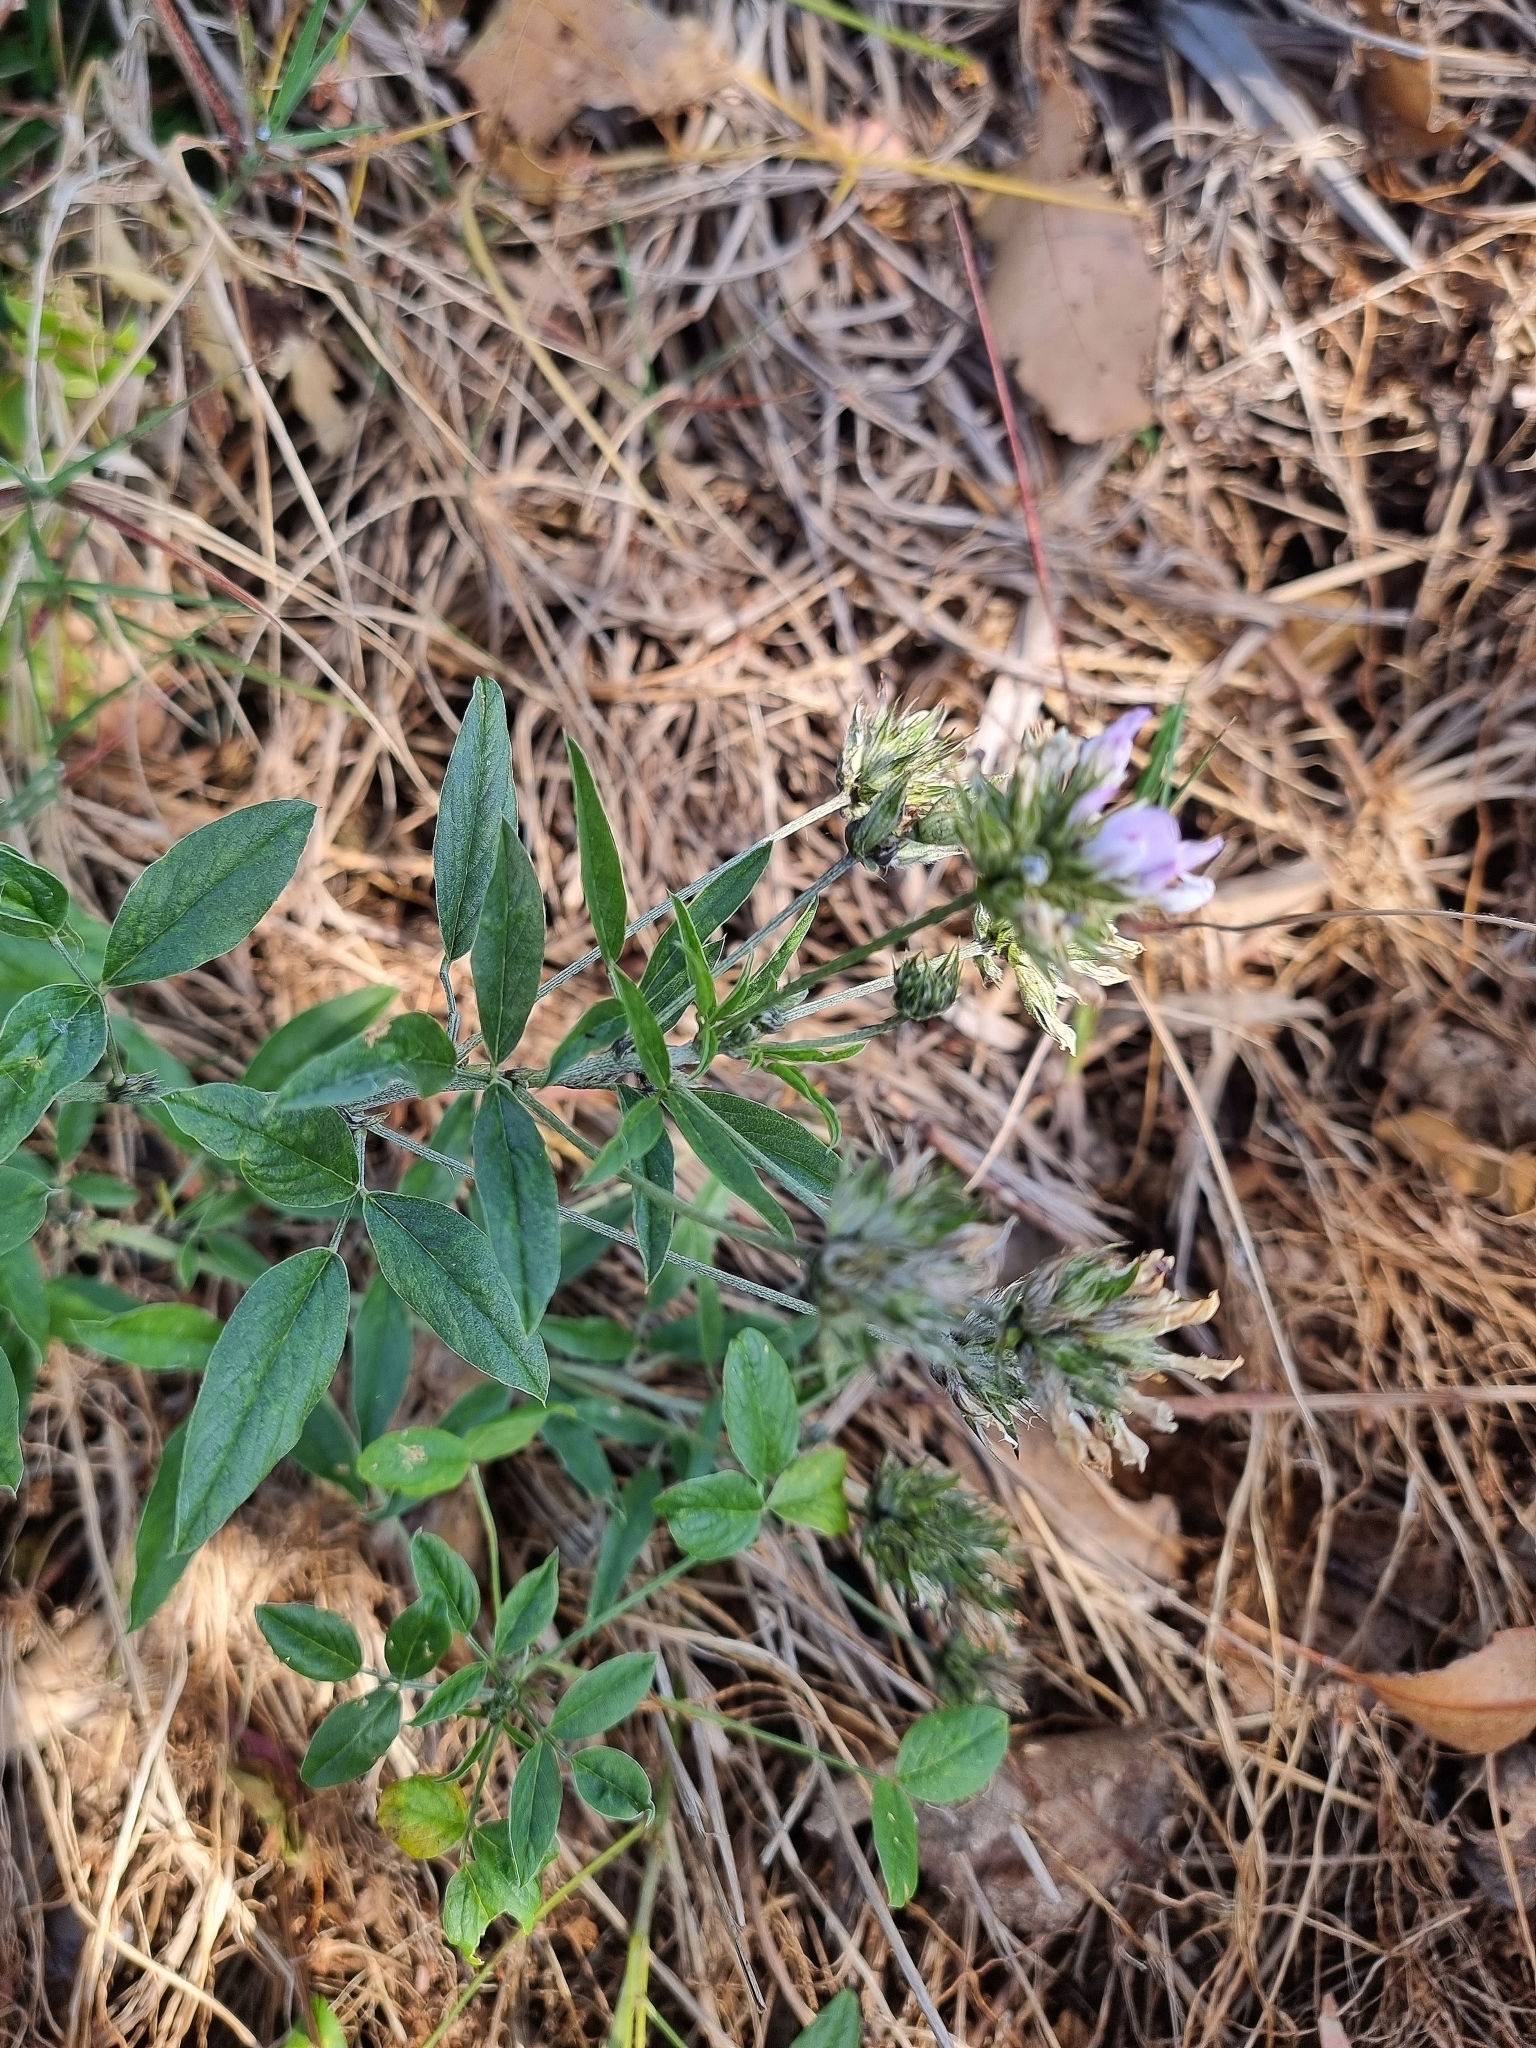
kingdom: Plantae
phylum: Tracheophyta
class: Magnoliopsida
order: Fabales
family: Fabaceae
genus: Bituminaria
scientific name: Bituminaria bituminosa
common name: Arabian pea
